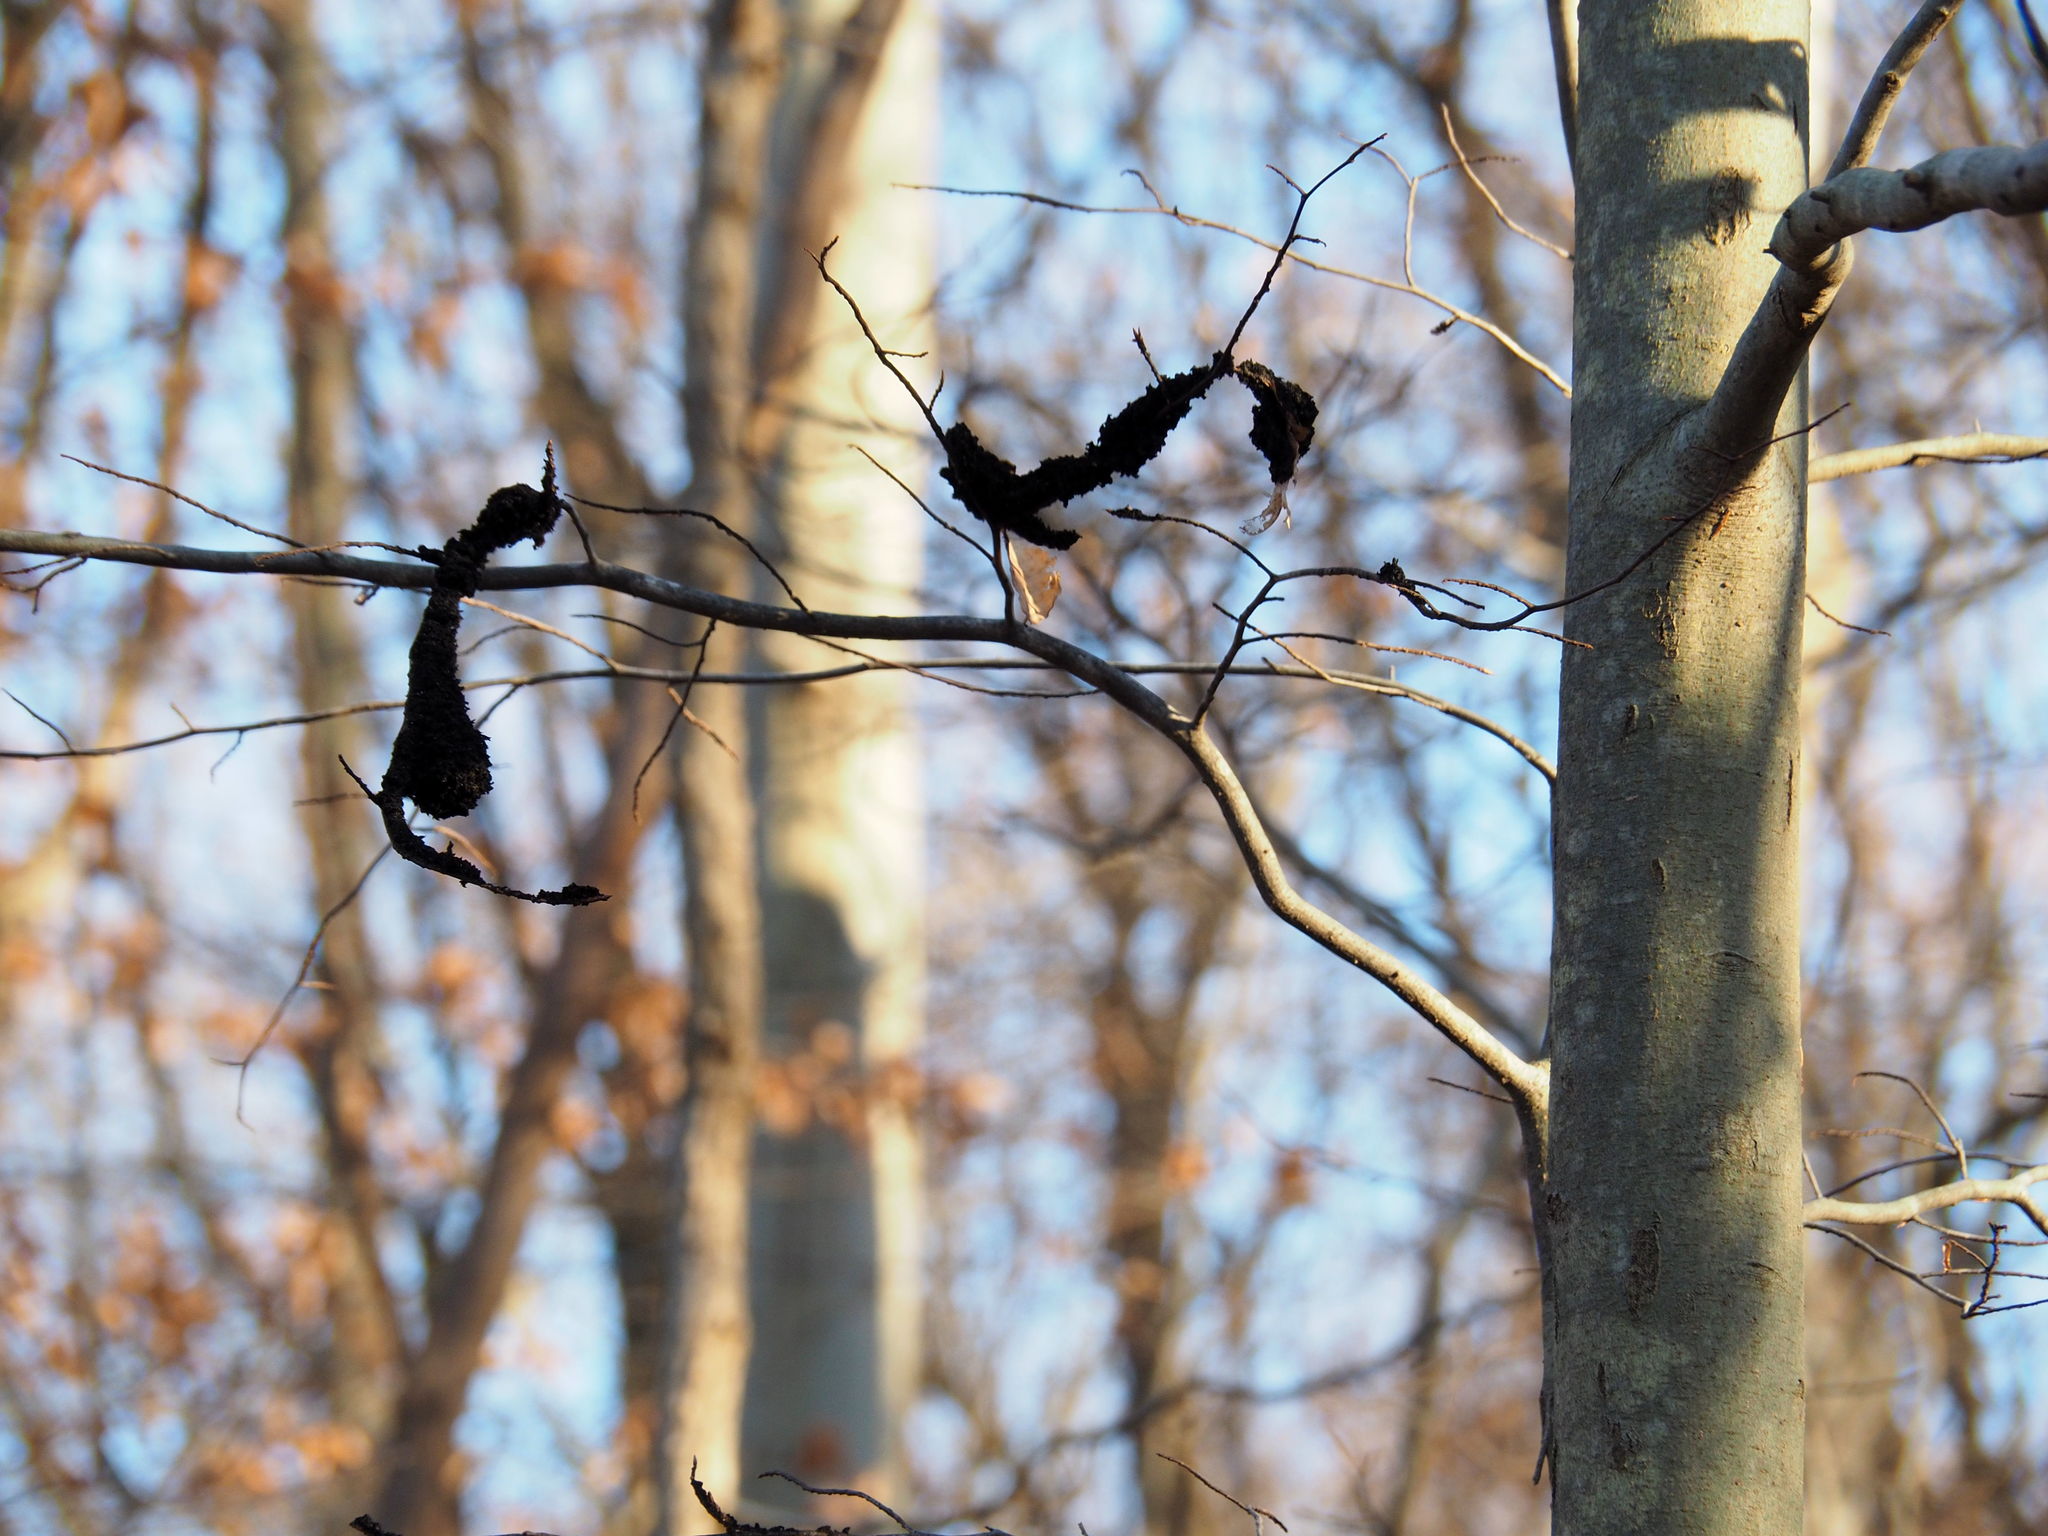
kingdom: Fungi
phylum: Ascomycota
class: Dothideomycetes
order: Capnodiales
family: Capnodiaceae
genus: Scorias
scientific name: Scorias spongiosa
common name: Black sooty mold
